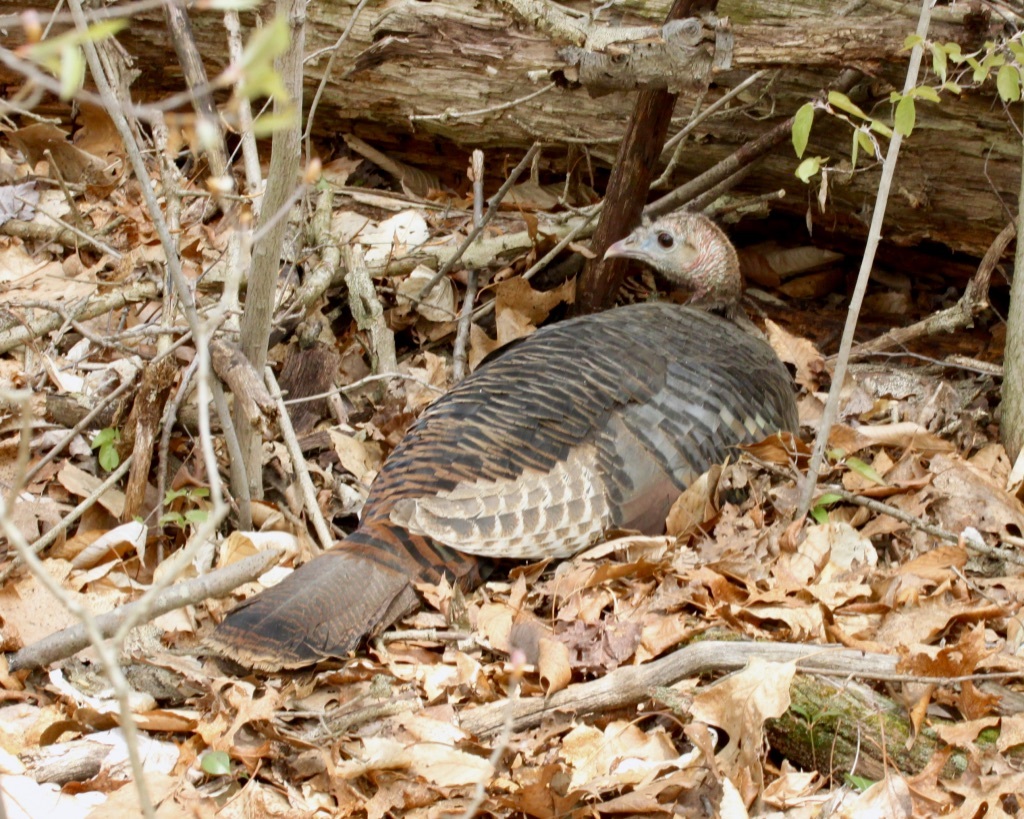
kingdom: Animalia
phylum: Chordata
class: Aves
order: Galliformes
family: Phasianidae
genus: Meleagris
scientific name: Meleagris gallopavo
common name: Wild turkey
